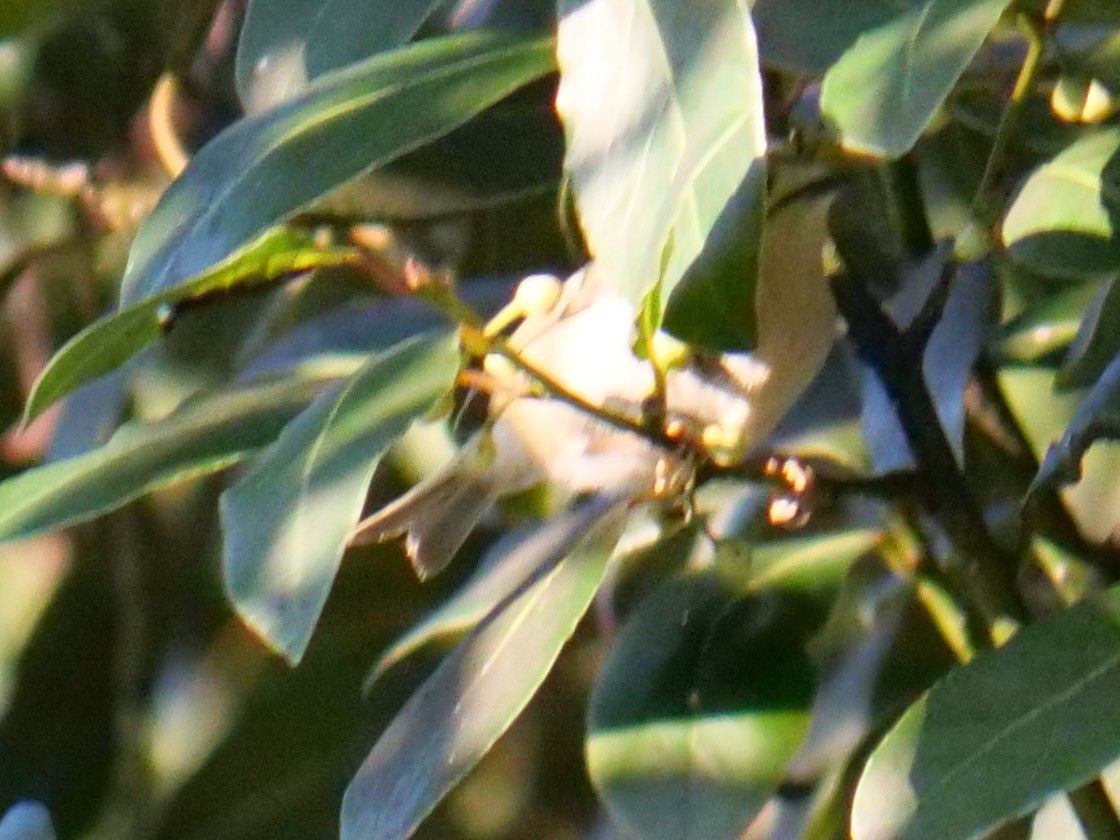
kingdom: Animalia
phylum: Chordata
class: Aves
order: Passeriformes
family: Regulidae
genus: Regulus
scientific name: Regulus regulus
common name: Goldcrest
